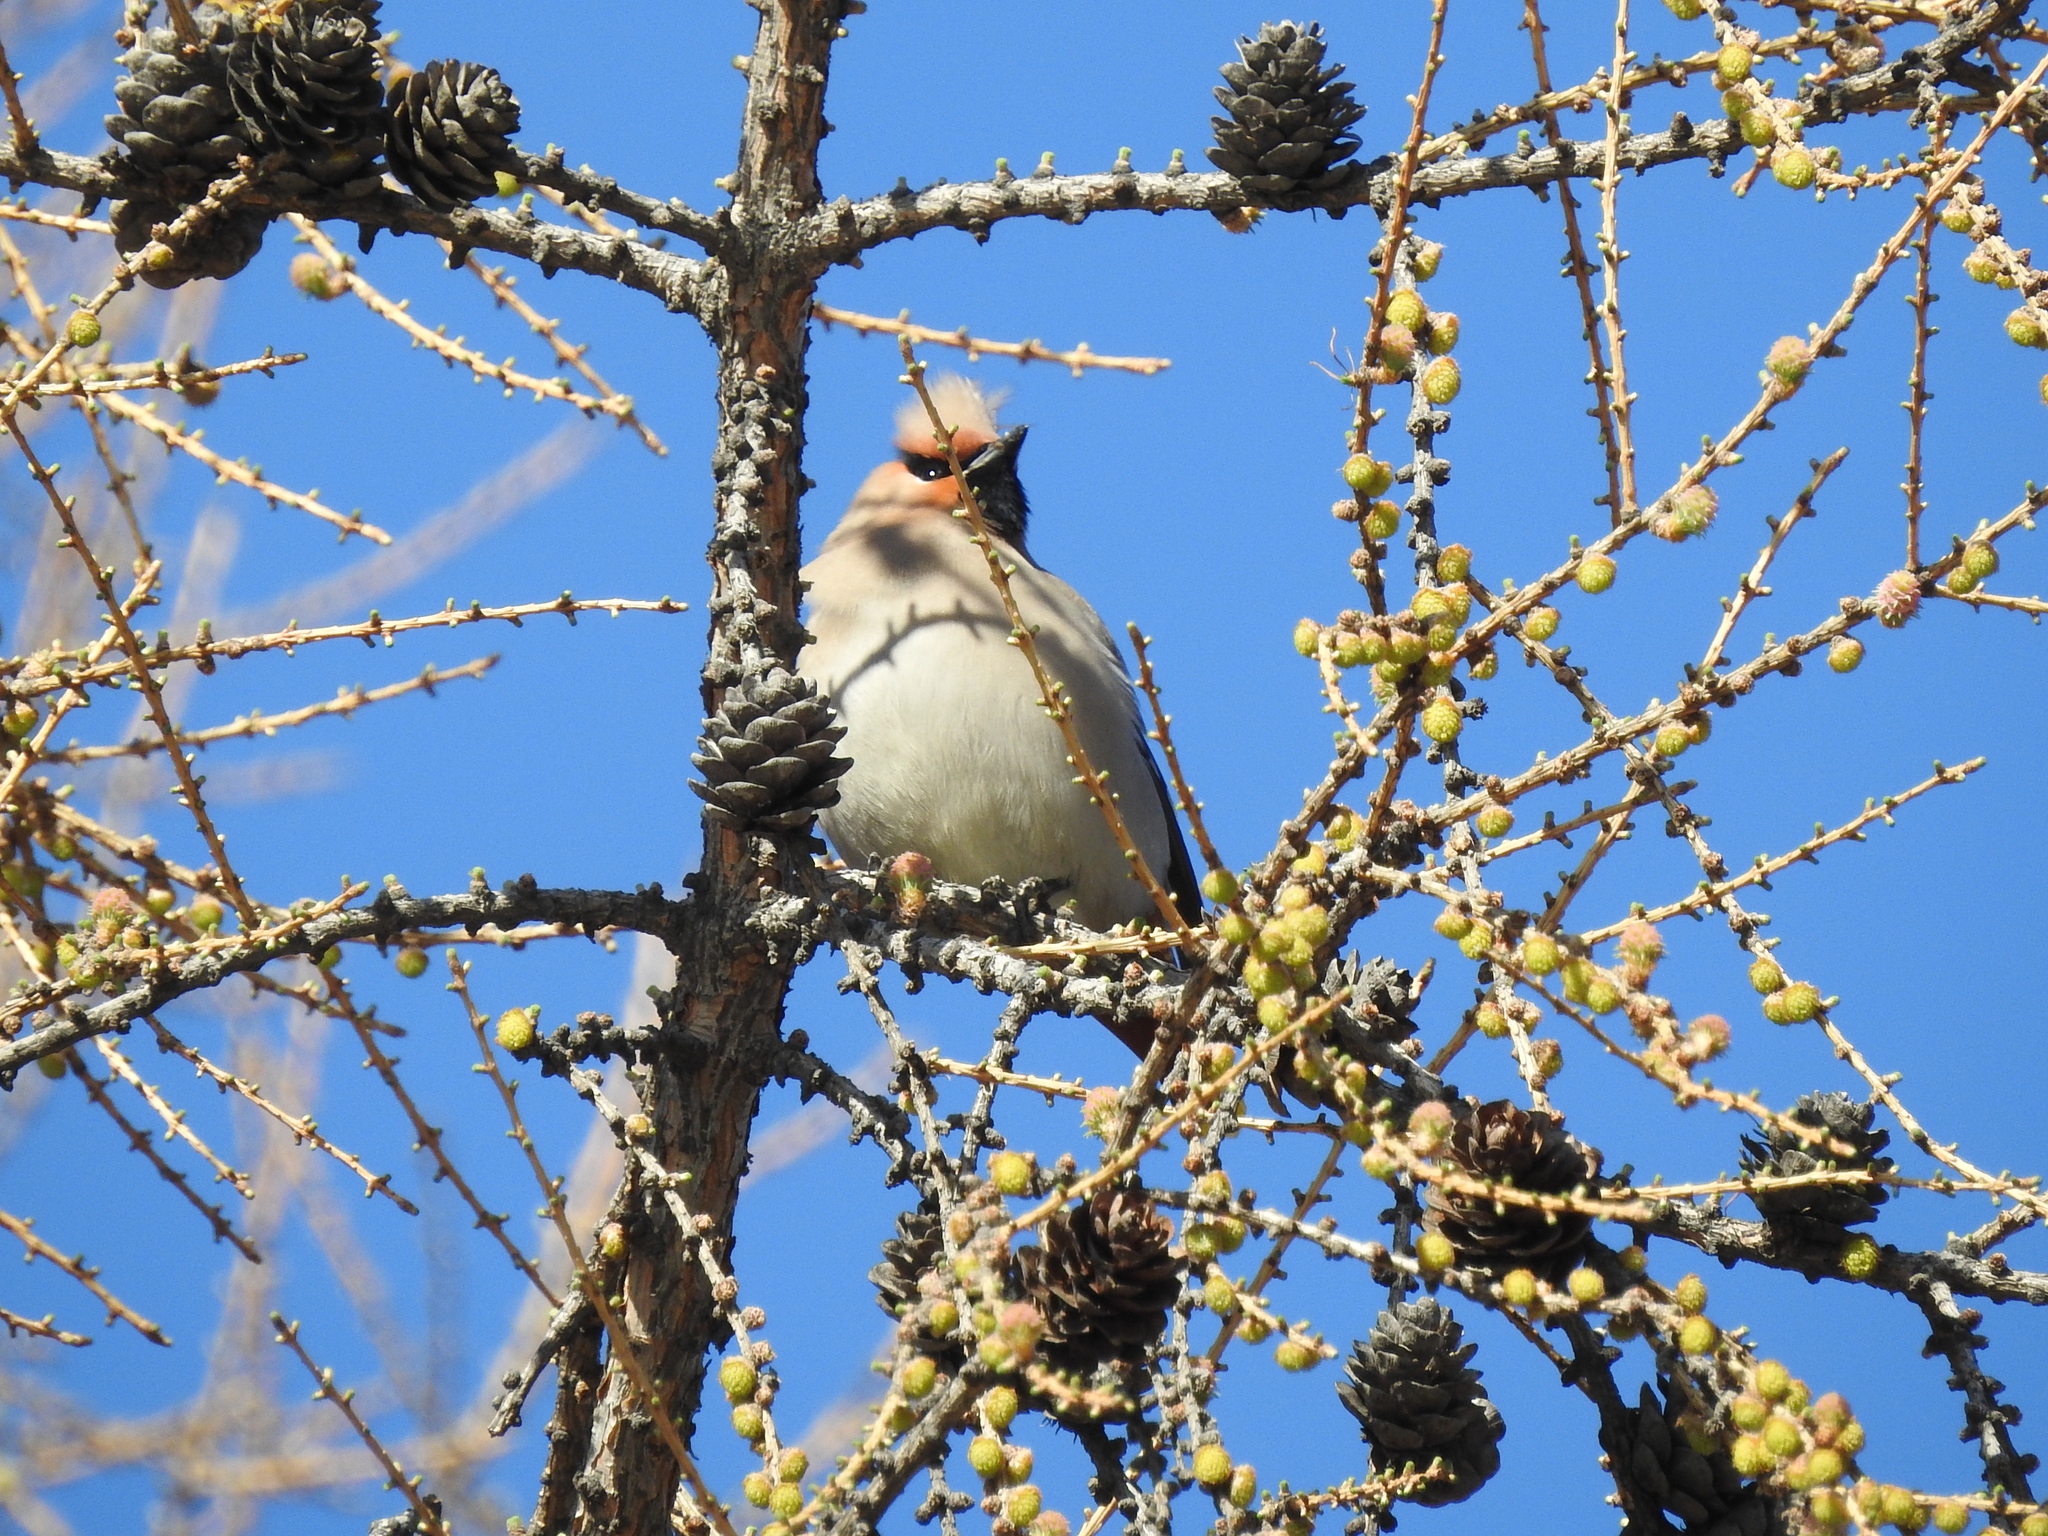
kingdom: Animalia
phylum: Chordata
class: Aves
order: Passeriformes
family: Bombycillidae
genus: Bombycilla
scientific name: Bombycilla garrulus
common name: Bohemian waxwing
